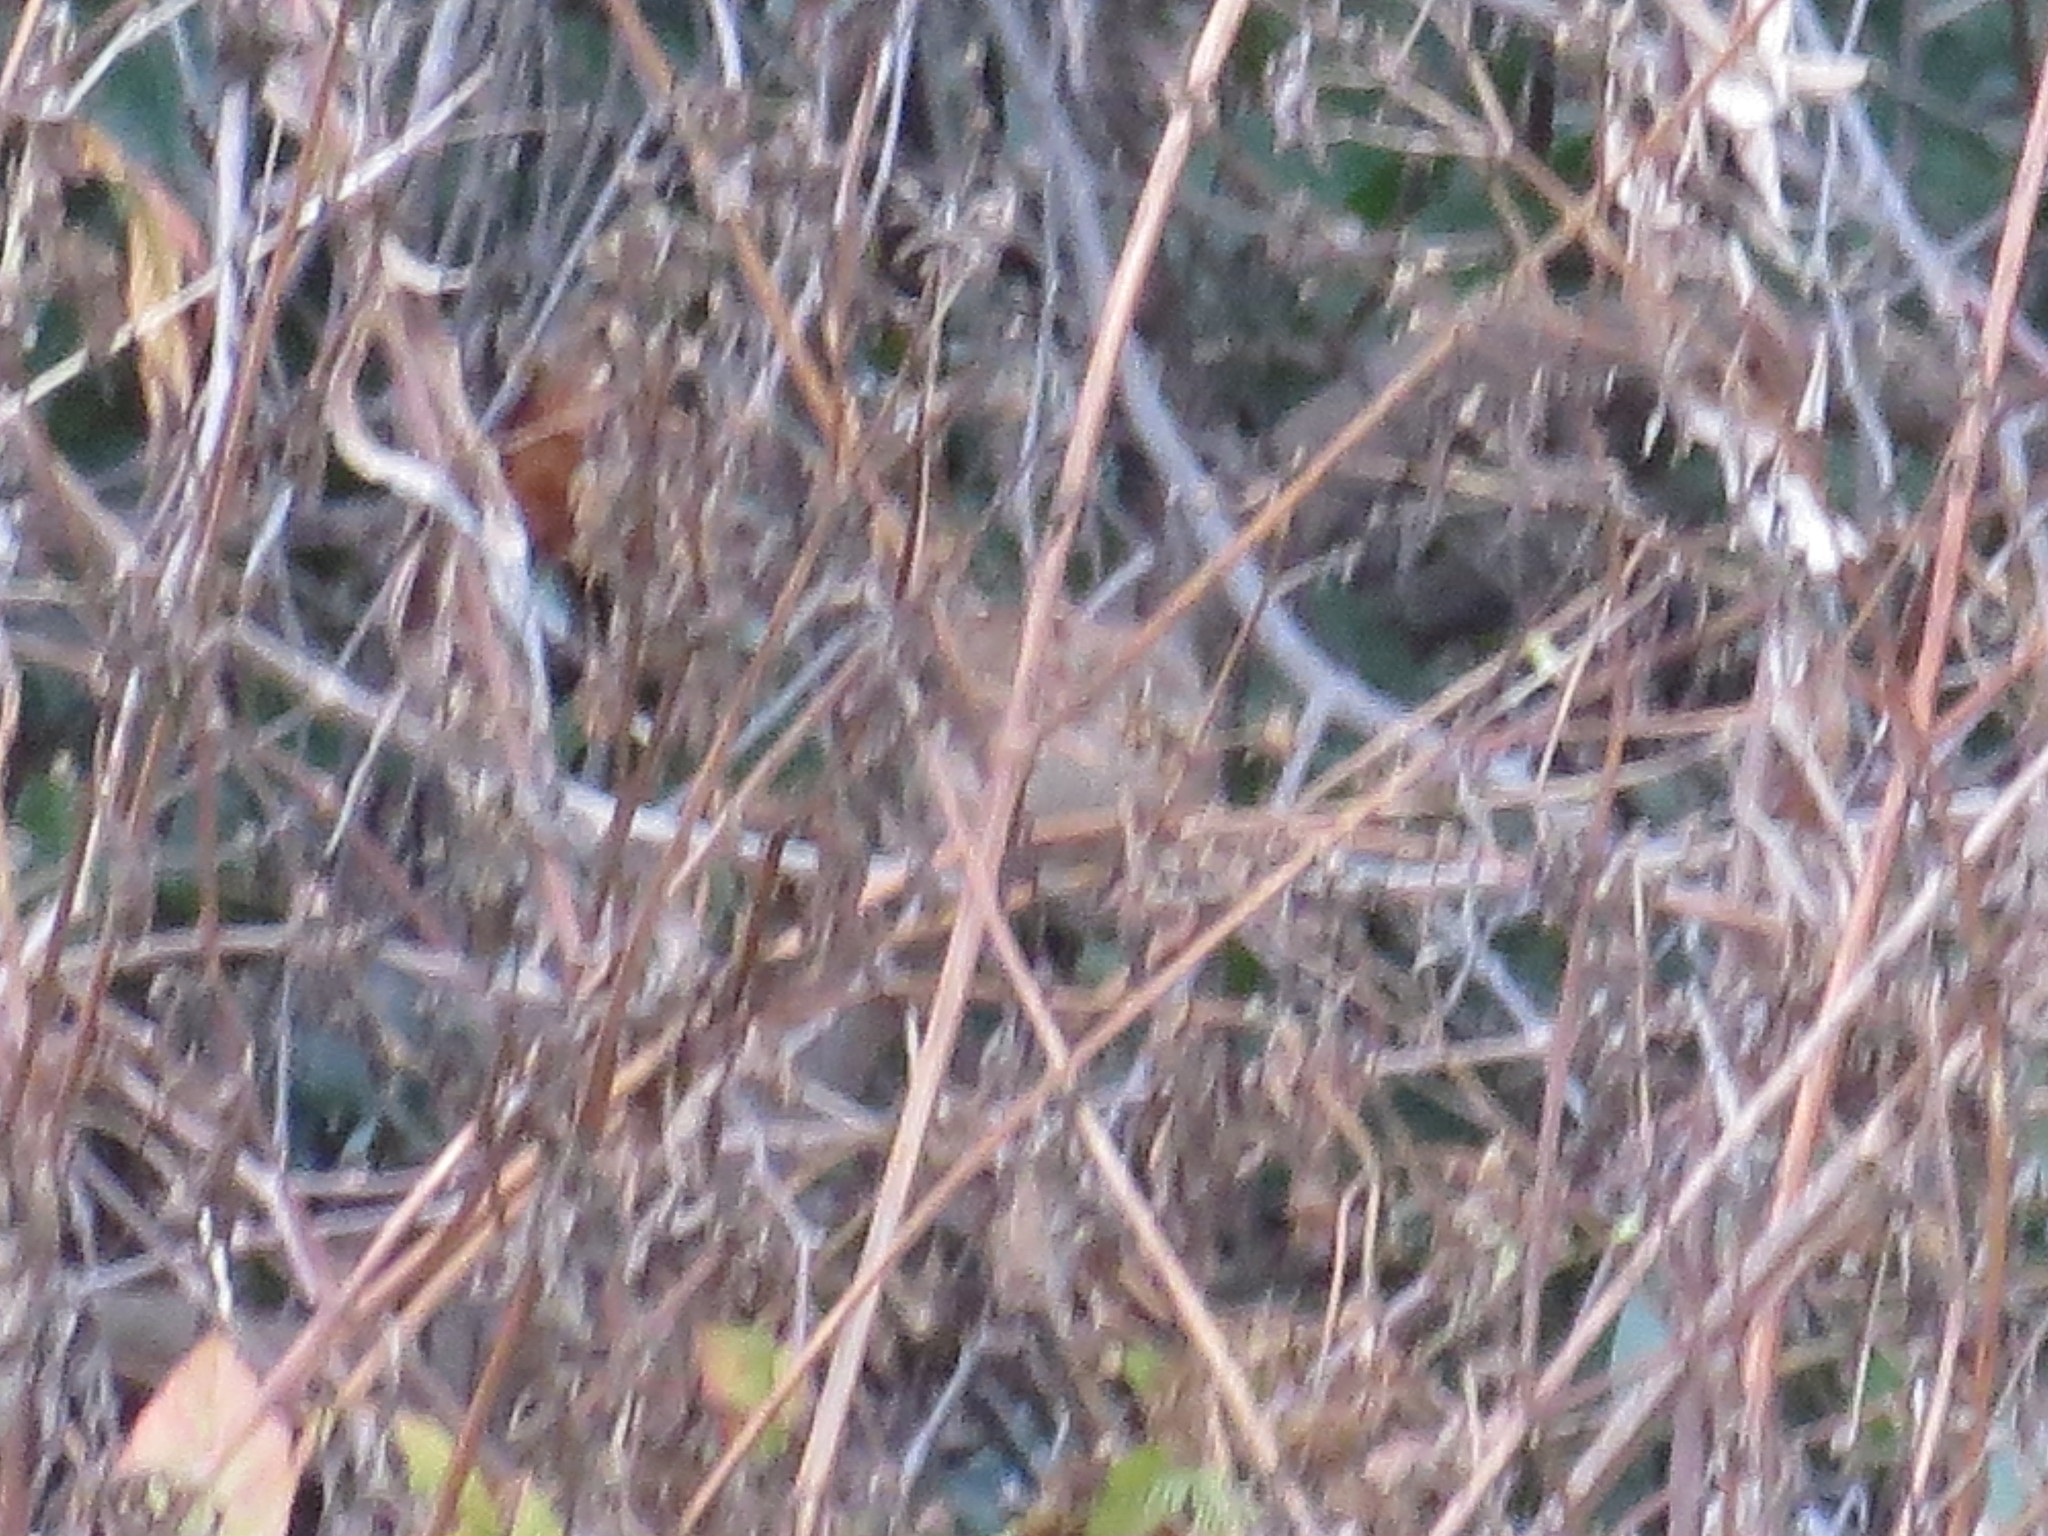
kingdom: Animalia
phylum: Chordata
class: Aves
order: Passeriformes
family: Troglodytidae
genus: Troglodytes
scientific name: Troglodytes aedon
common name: House wren
